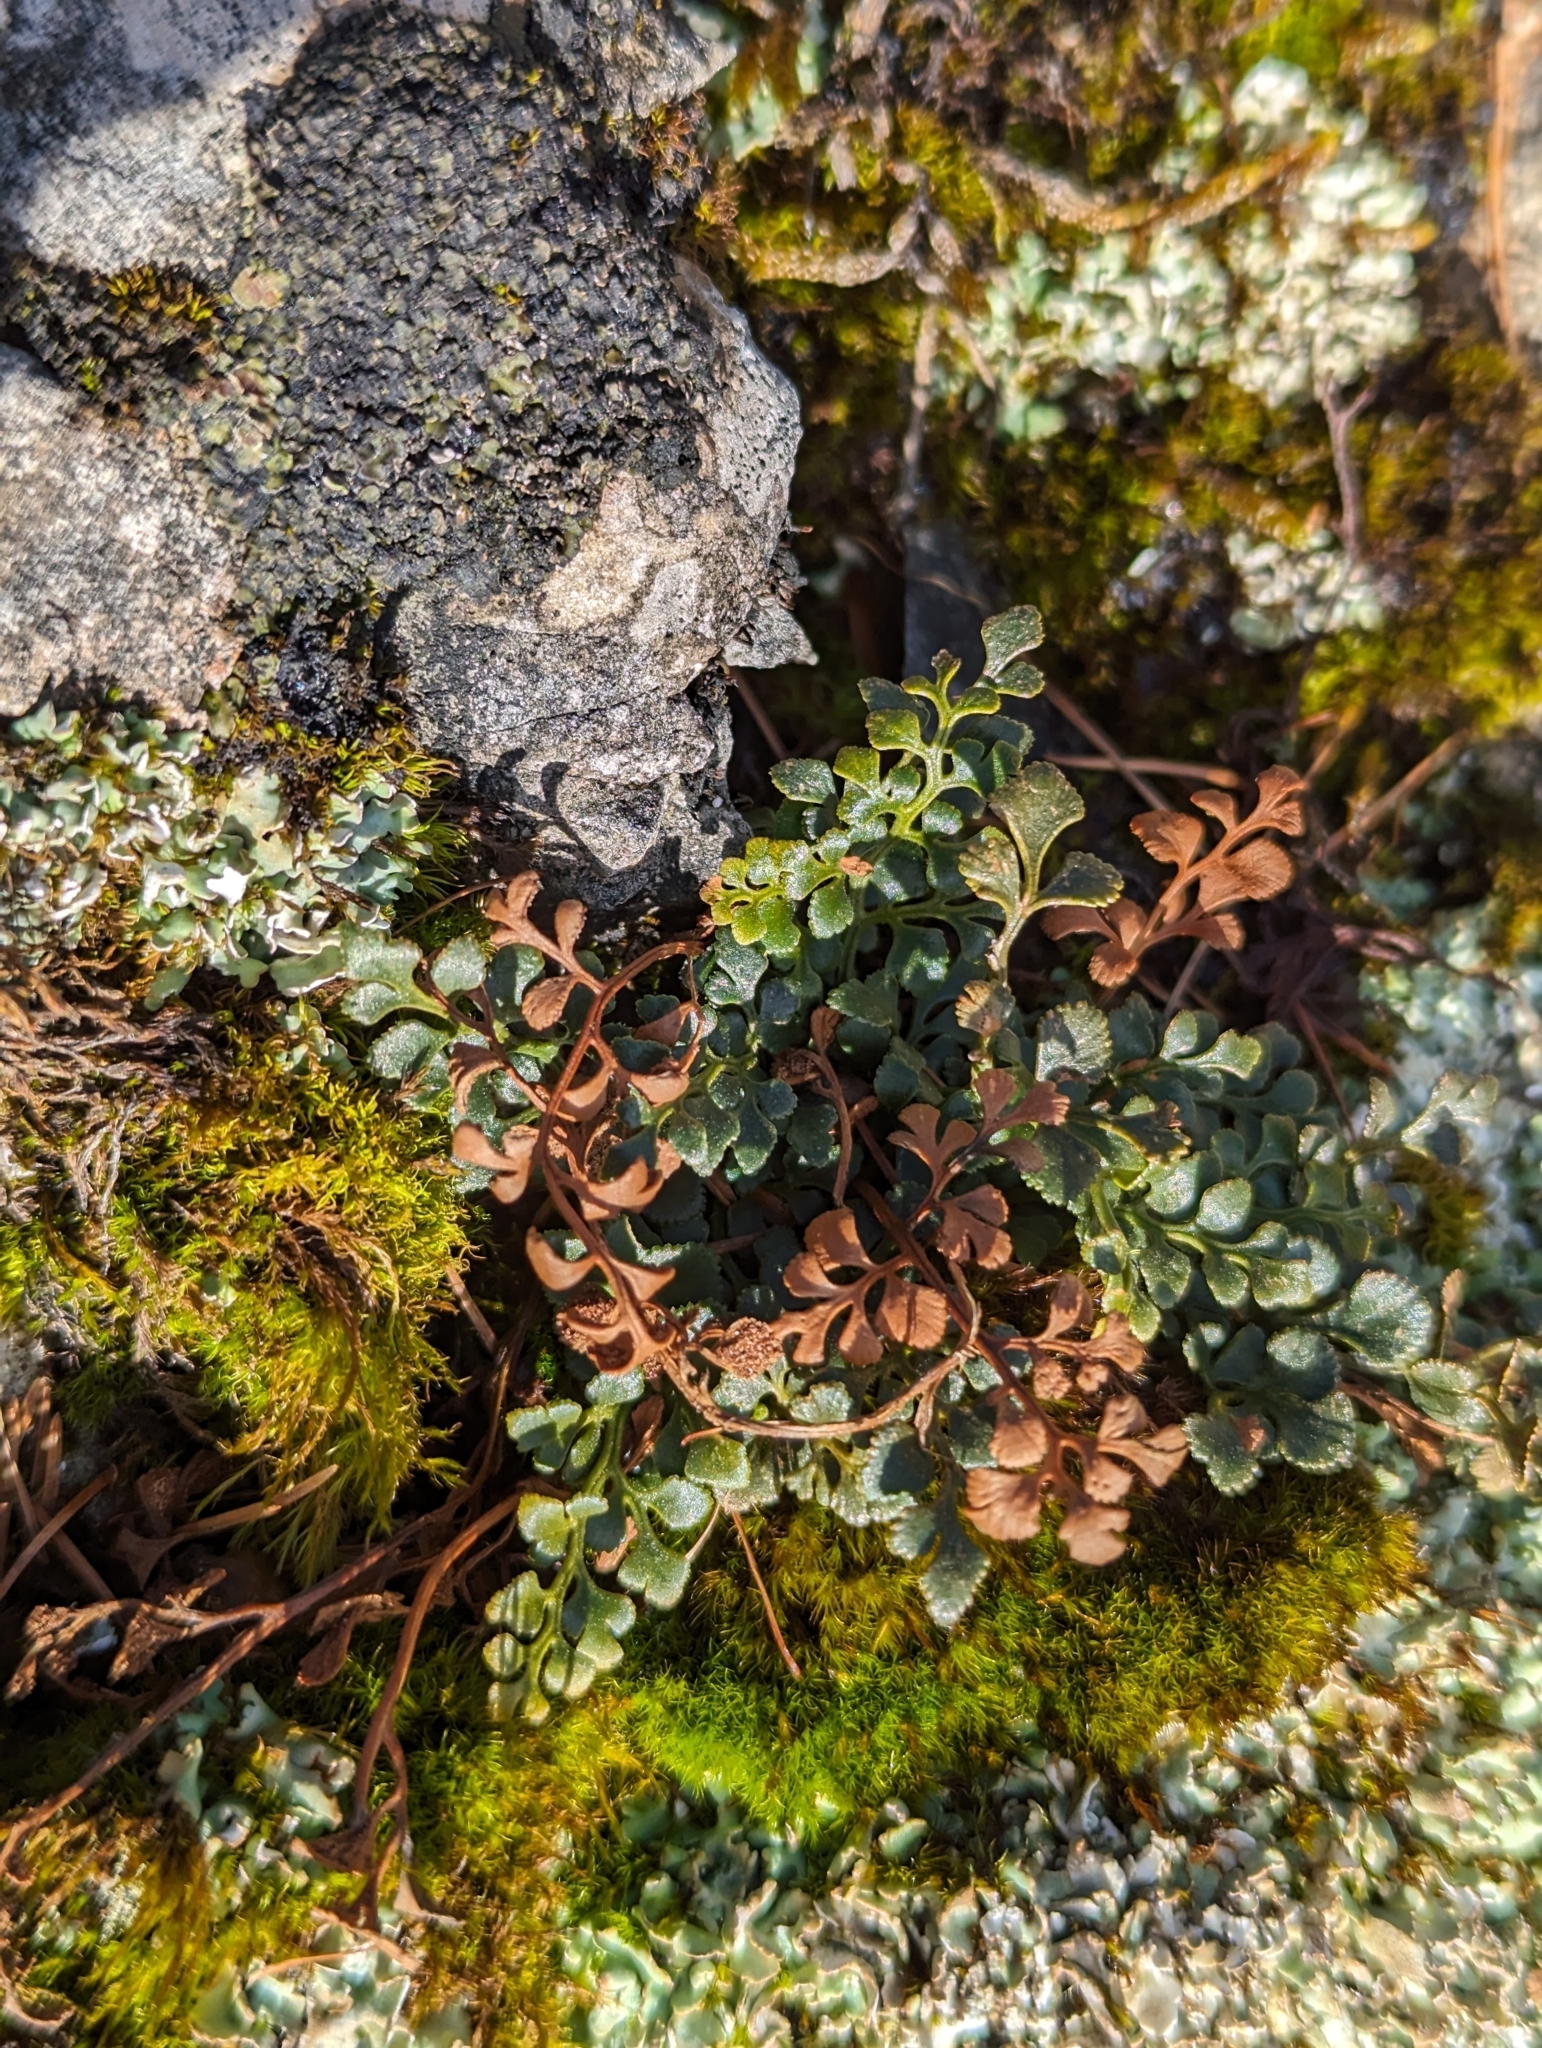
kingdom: Plantae
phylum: Tracheophyta
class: Polypodiopsida
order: Polypodiales
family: Aspleniaceae
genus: Asplenium
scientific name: Asplenium ruta-muraria
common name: Wall-rue
